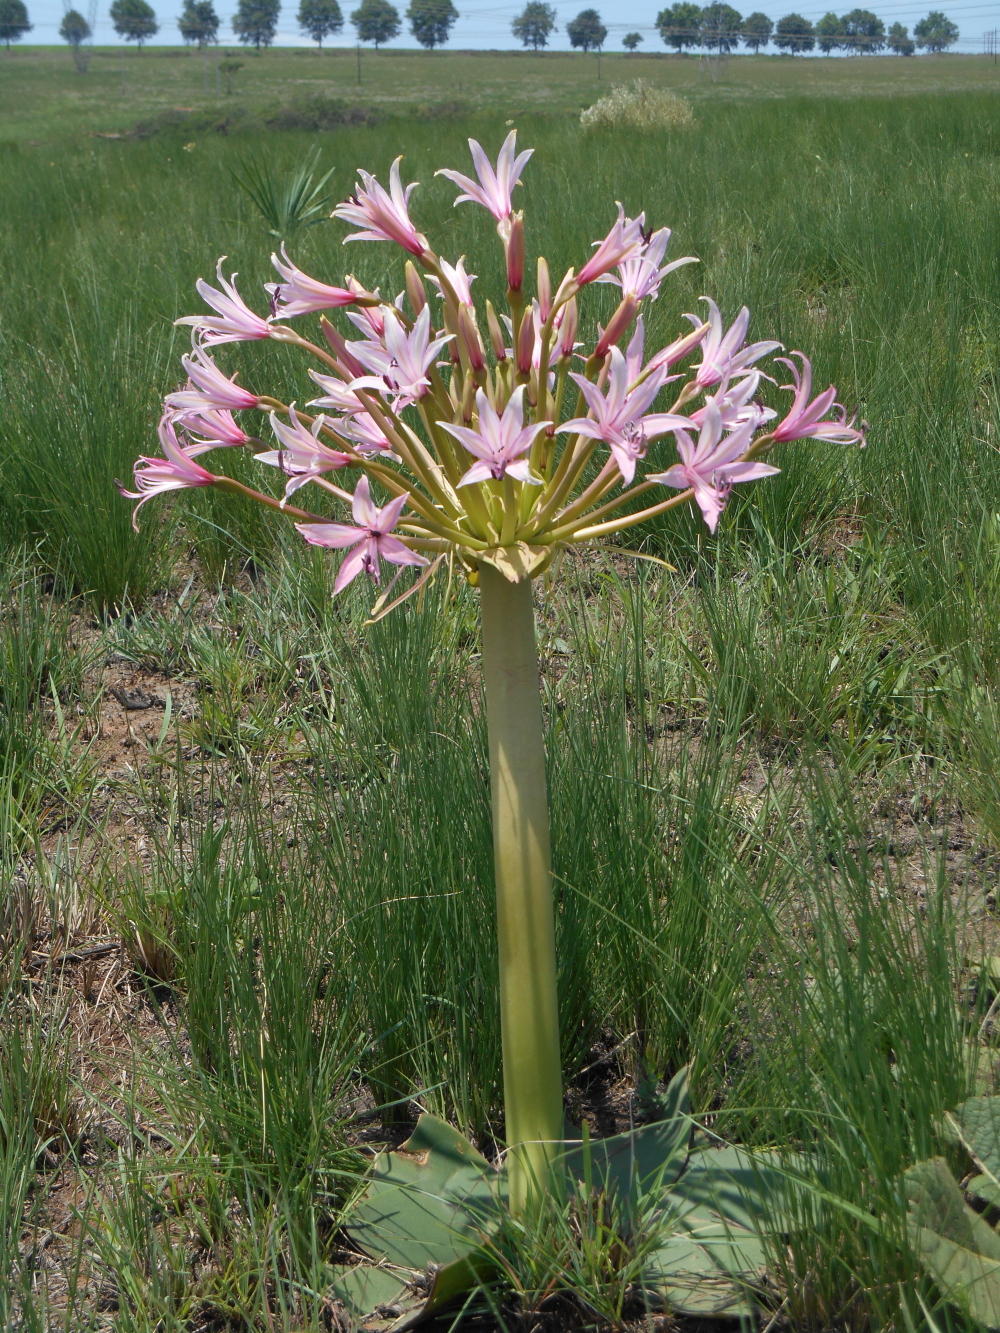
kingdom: Plantae
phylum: Tracheophyta
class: Liliopsida
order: Asparagales
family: Amaryllidaceae
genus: Brunsvigia
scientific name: Brunsvigia radulosa
